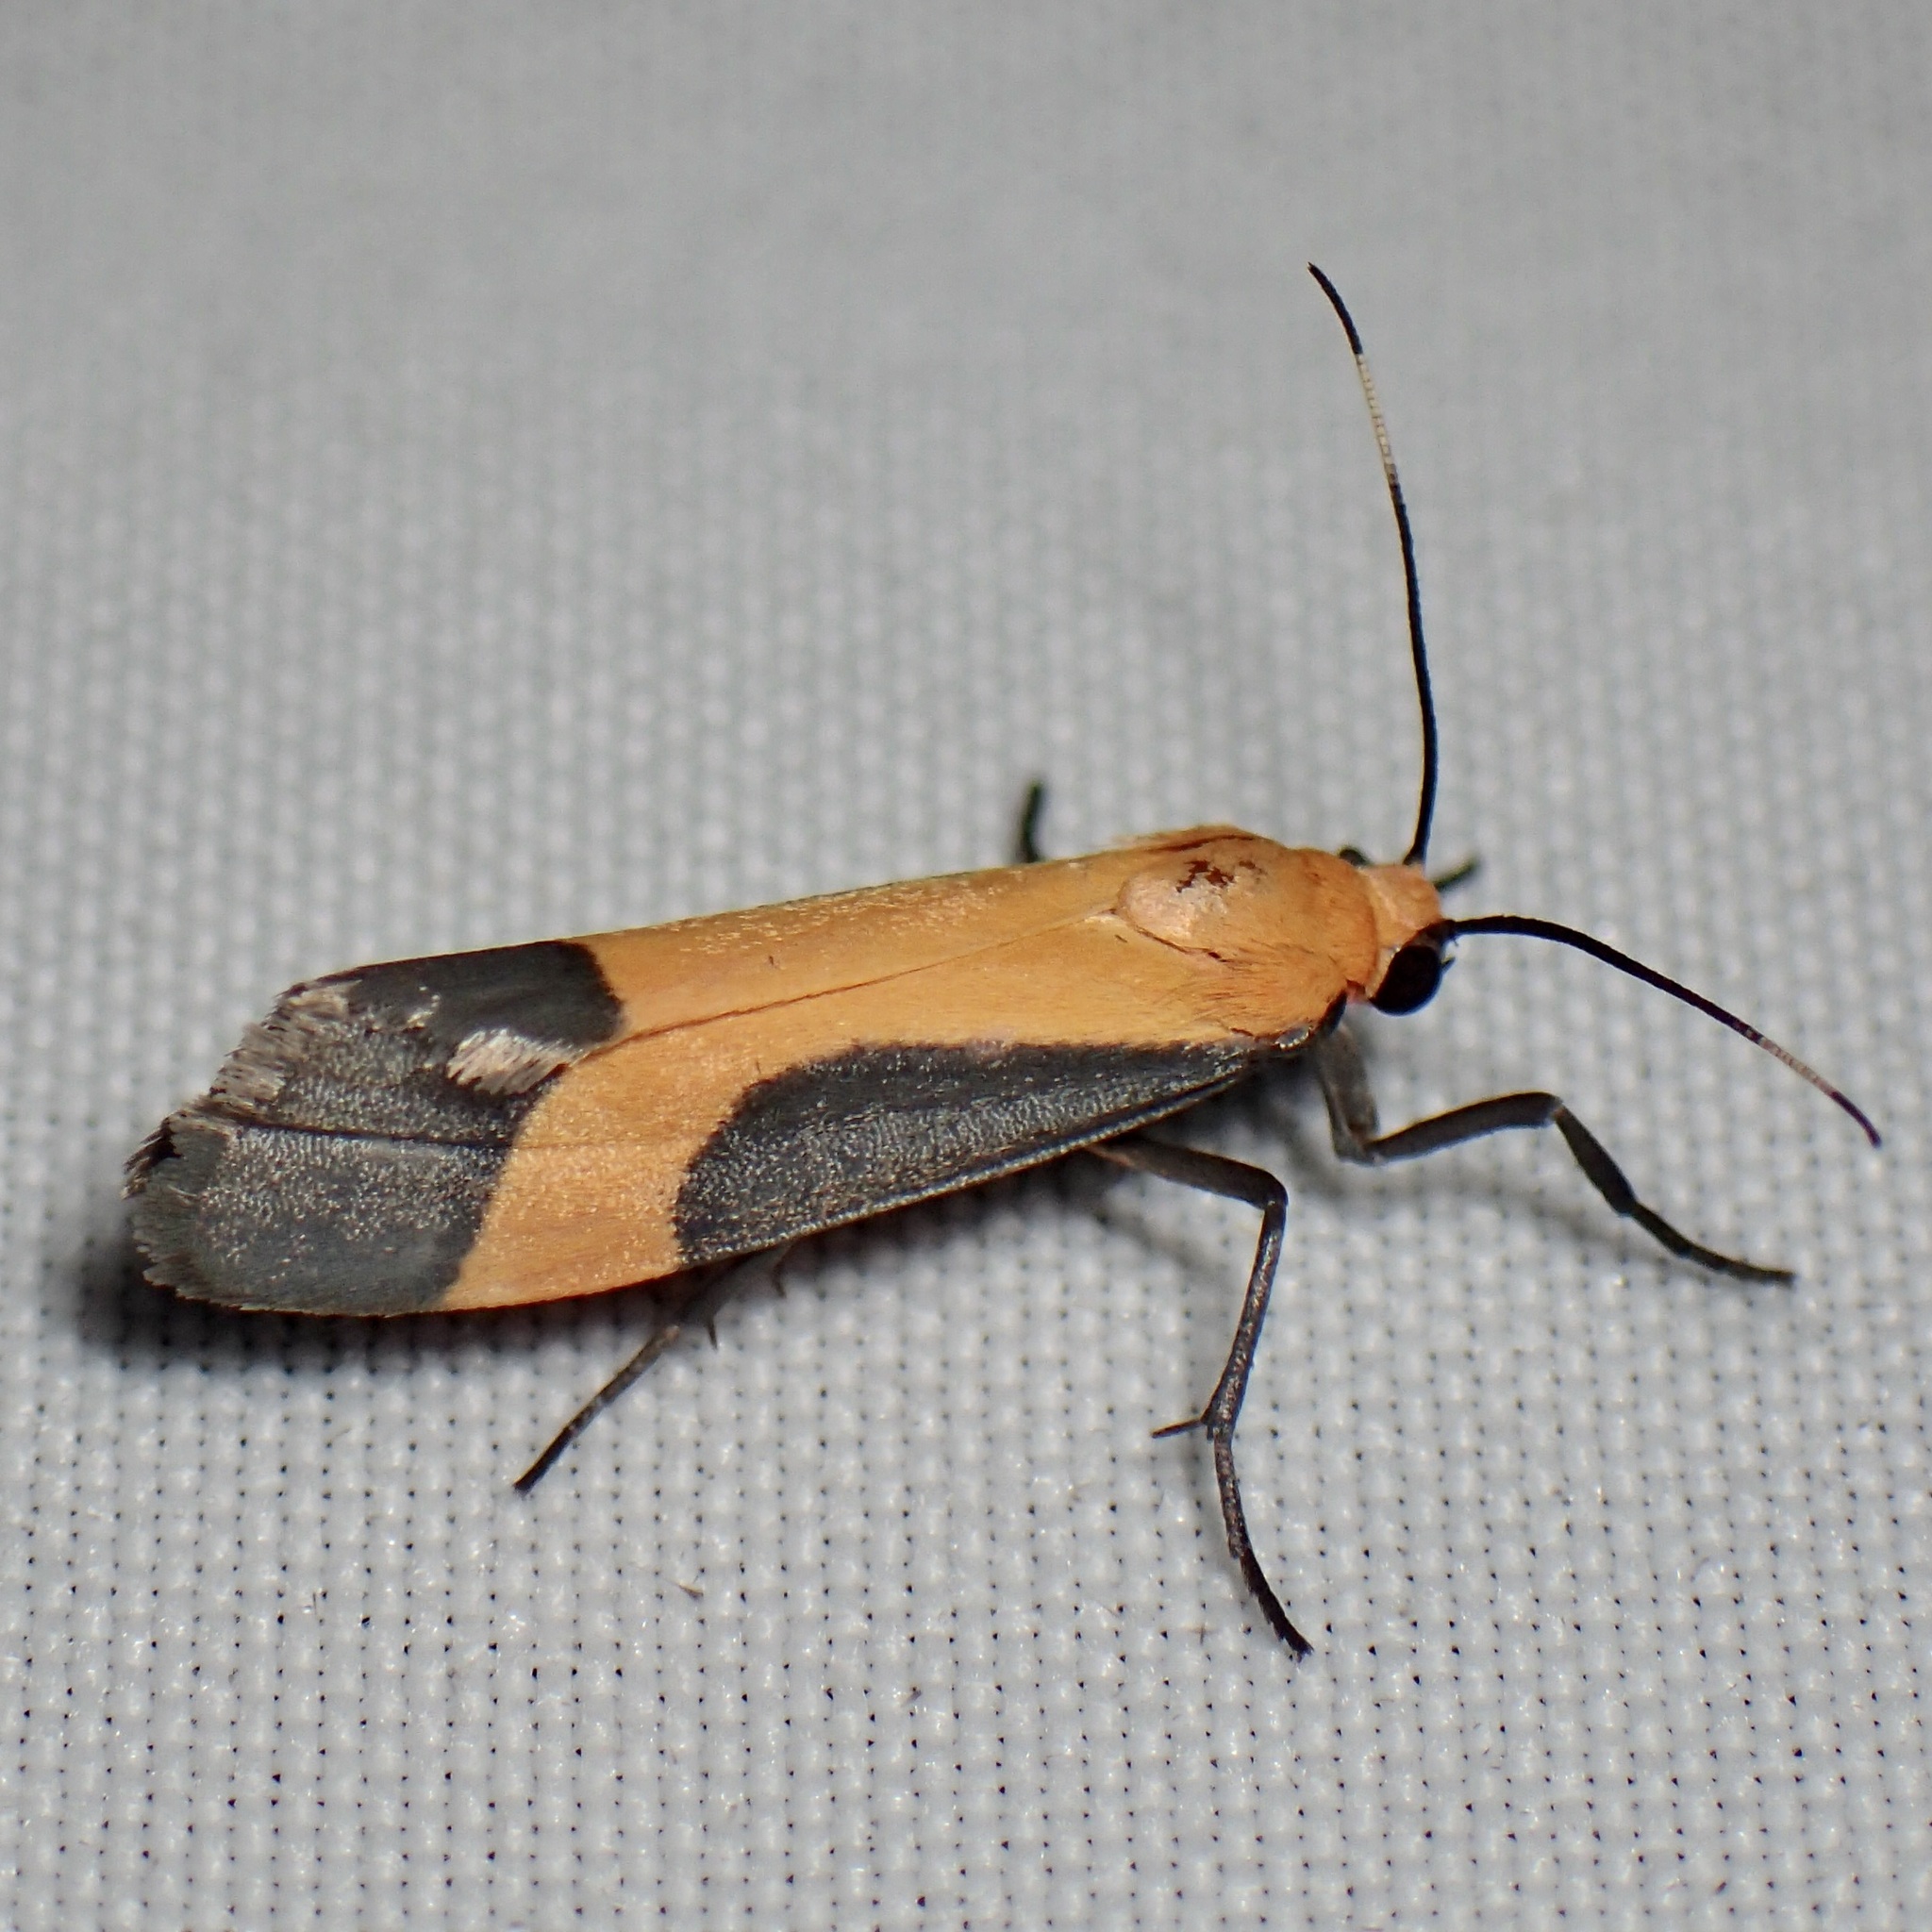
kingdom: Animalia
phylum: Arthropoda
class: Insecta
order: Lepidoptera
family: Erebidae
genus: Cisthene
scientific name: Cisthene angelus
